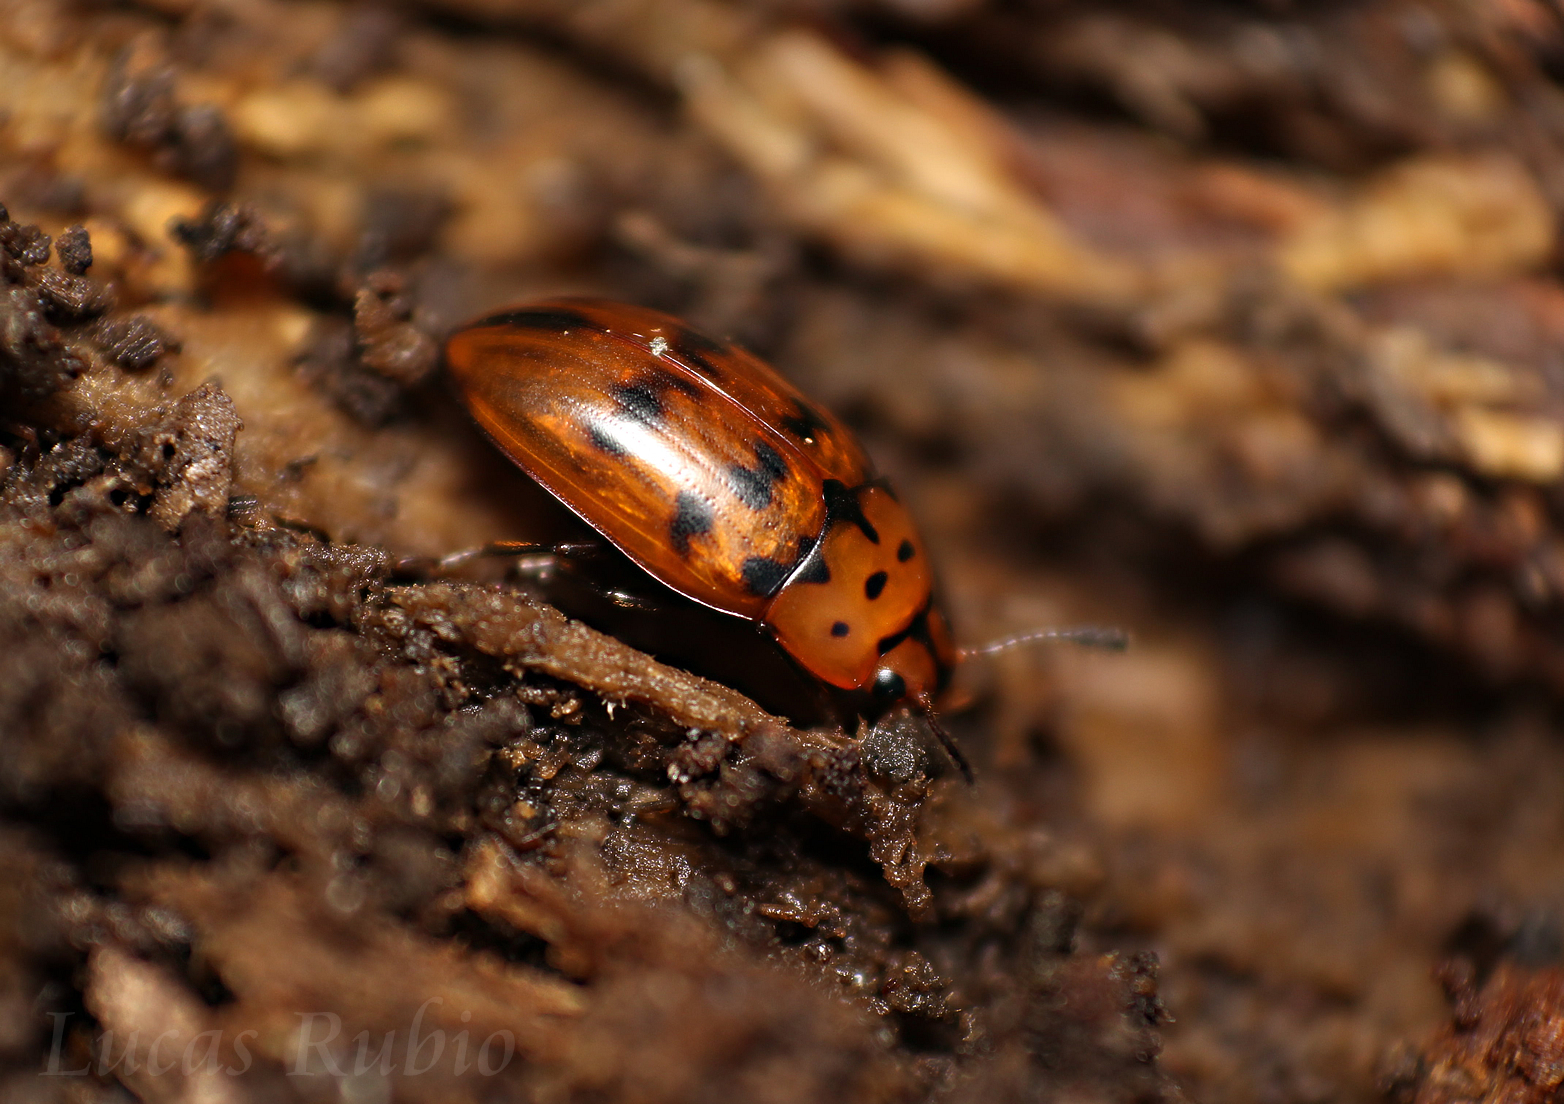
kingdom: Animalia
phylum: Arthropoda
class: Insecta
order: Coleoptera
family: Erotylidae
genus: Mycotretus
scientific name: Mycotretus ornatus
